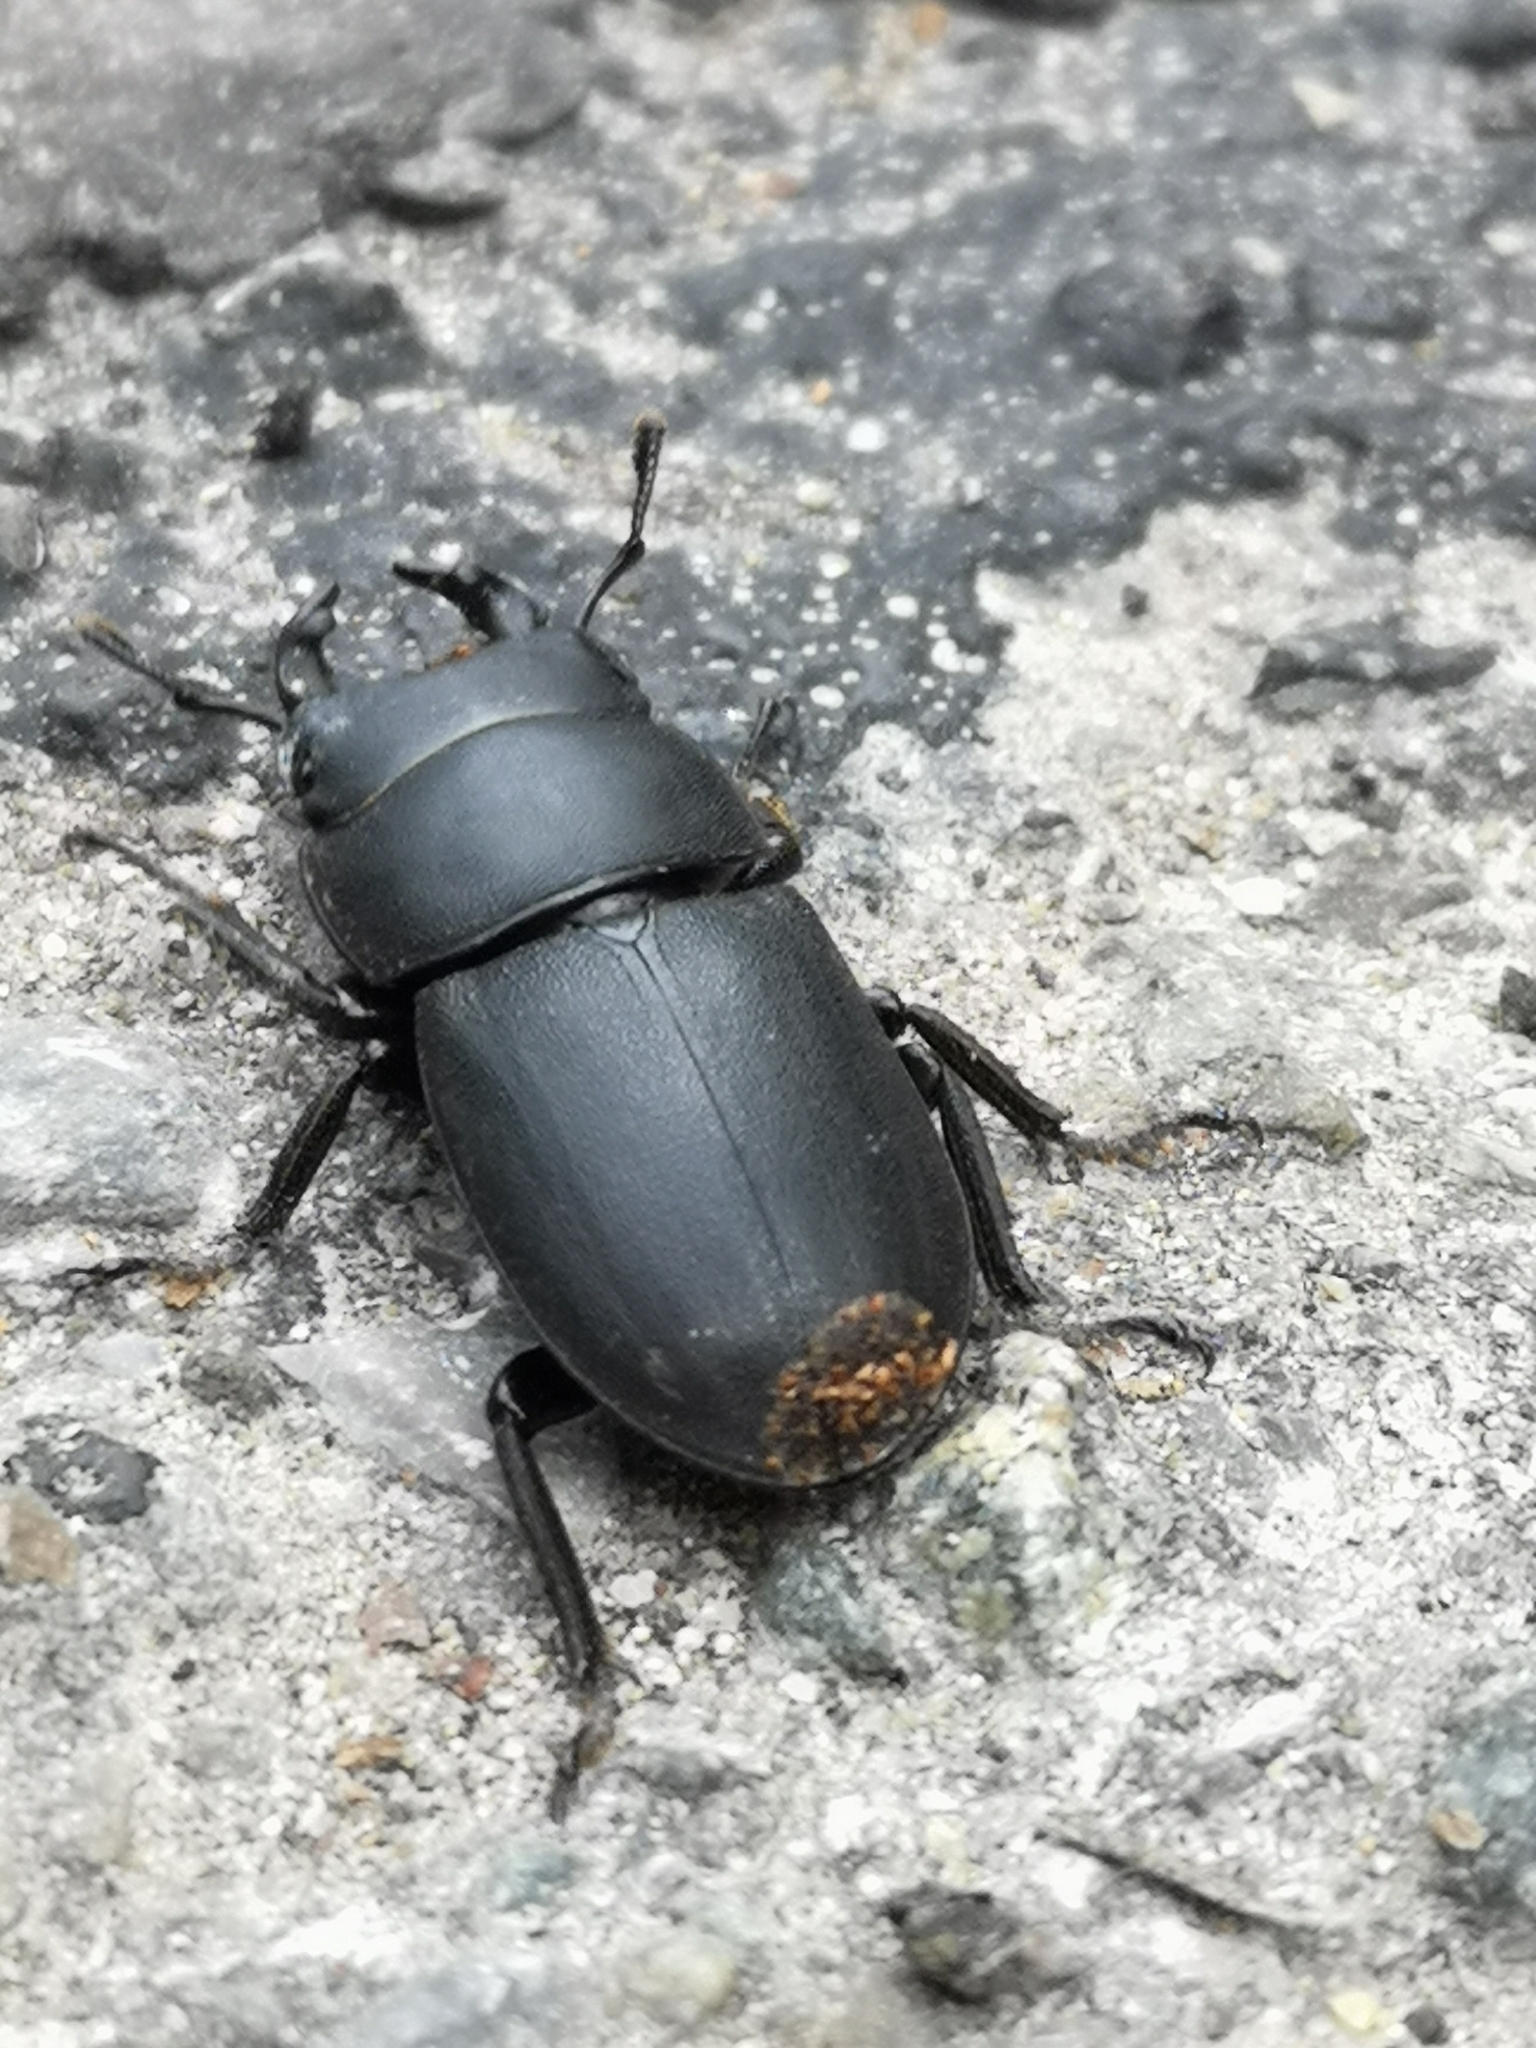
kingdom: Animalia
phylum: Arthropoda
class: Insecta
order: Coleoptera
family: Lucanidae
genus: Dorcus
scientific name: Dorcus parallelipipedus
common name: Lesser stag beetle
